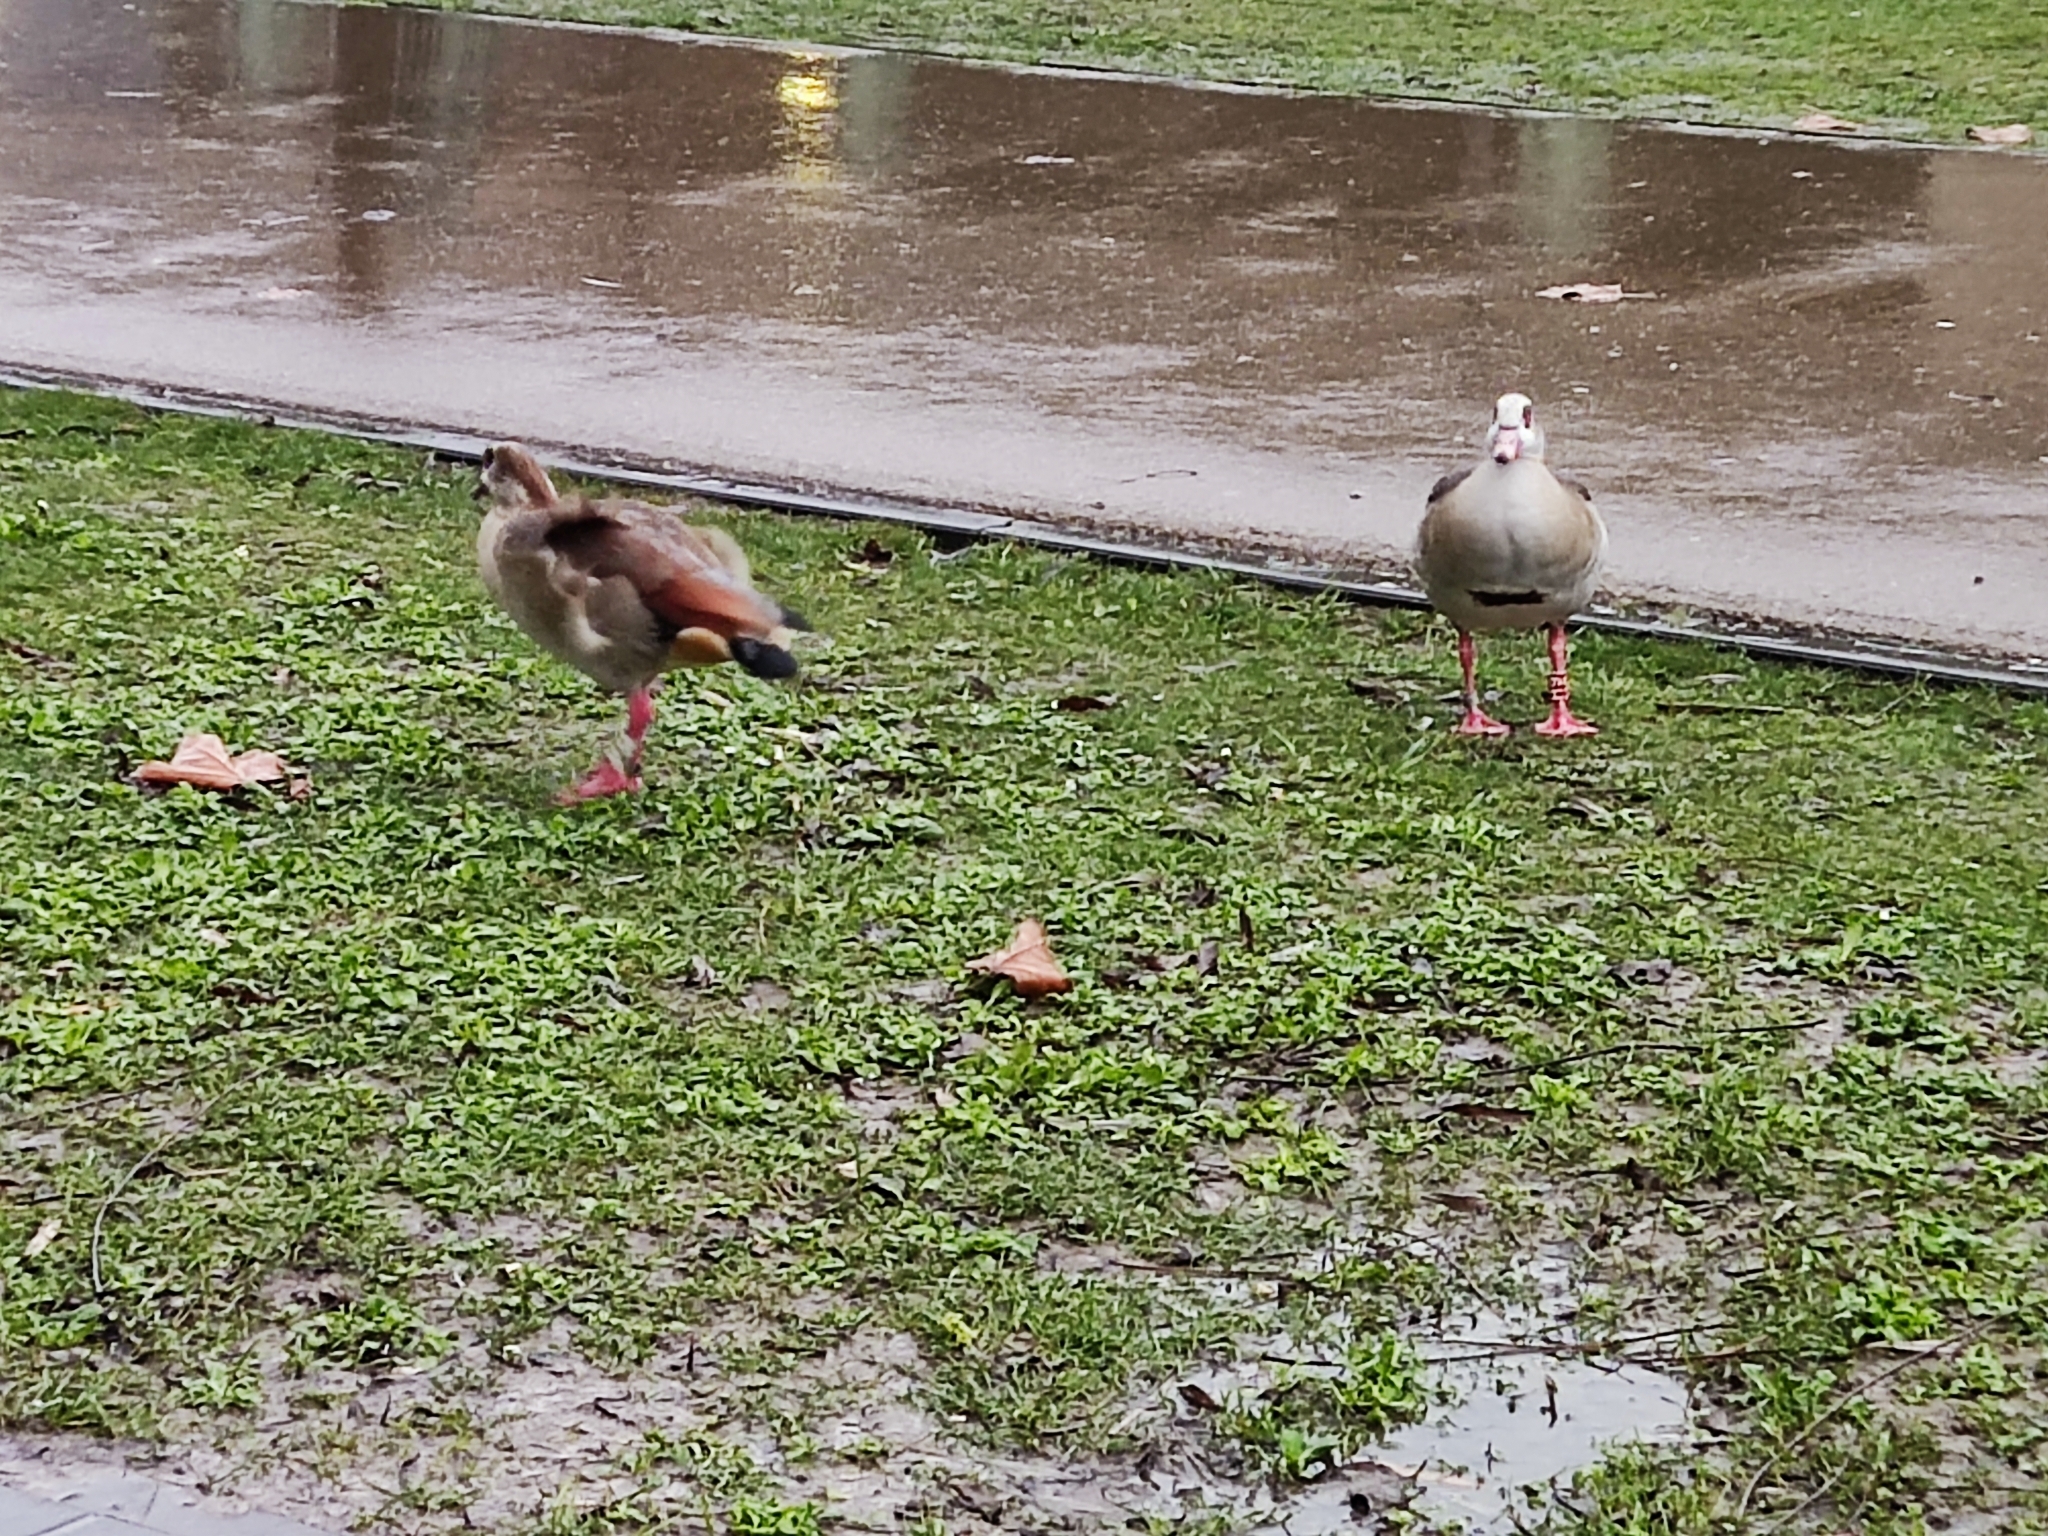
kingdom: Animalia
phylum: Chordata
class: Aves
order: Anseriformes
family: Anatidae
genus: Alopochen
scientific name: Alopochen aegyptiaca
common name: Egyptian goose
